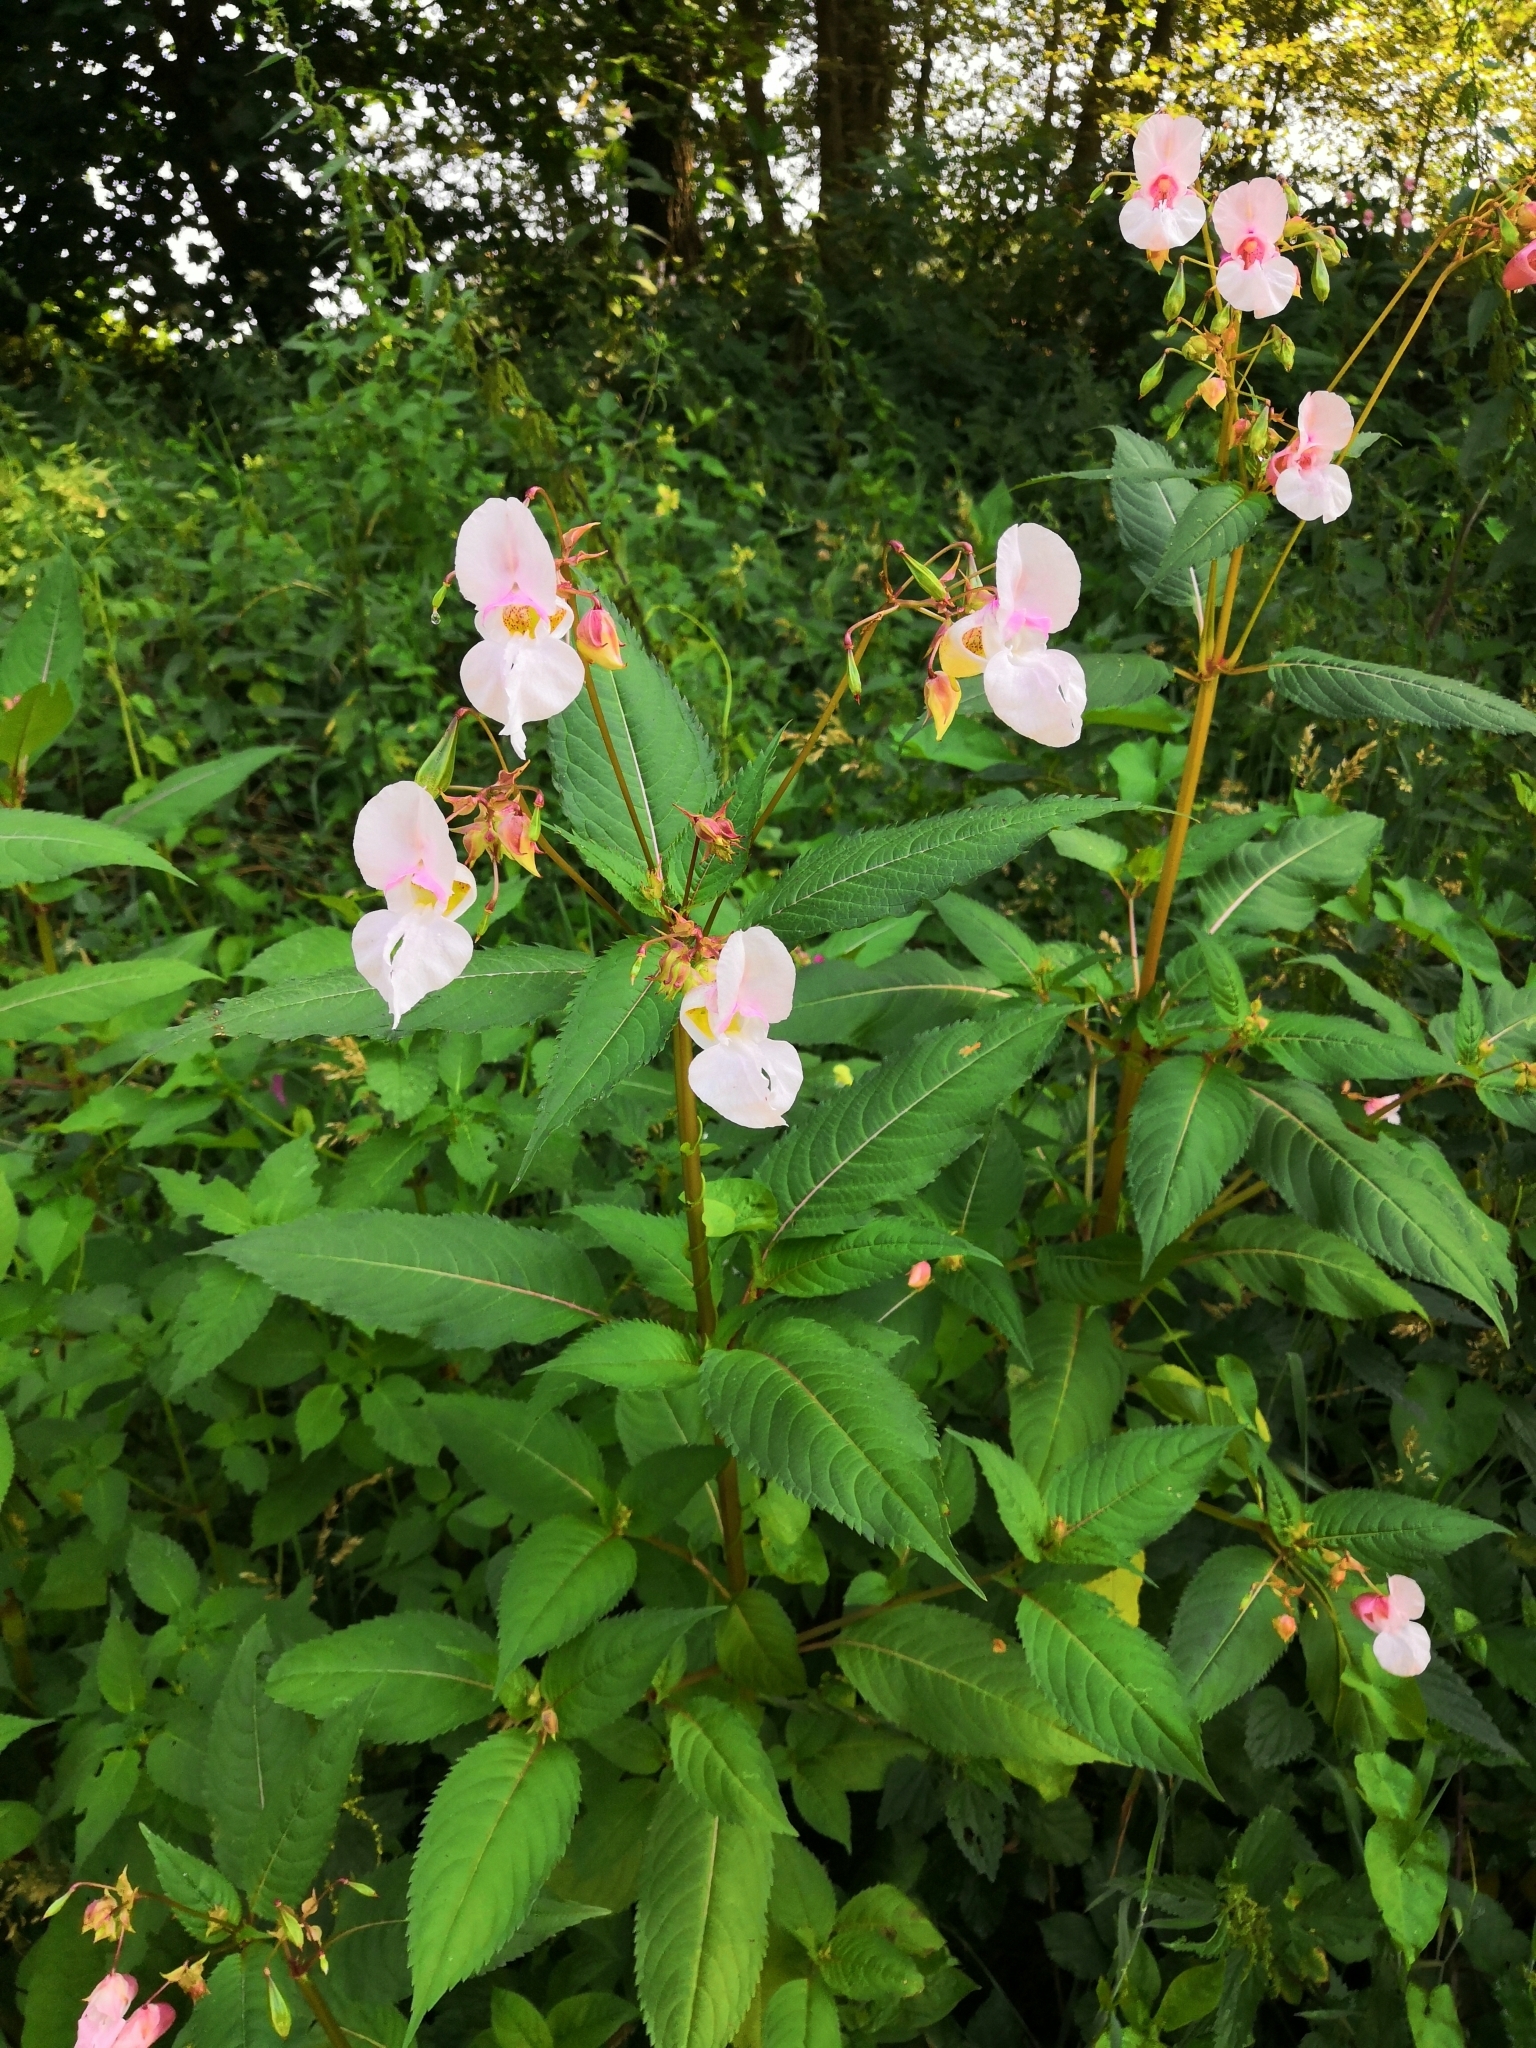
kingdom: Plantae
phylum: Tracheophyta
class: Magnoliopsida
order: Ericales
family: Balsaminaceae
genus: Impatiens
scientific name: Impatiens glandulifera
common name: Himalayan balsam
